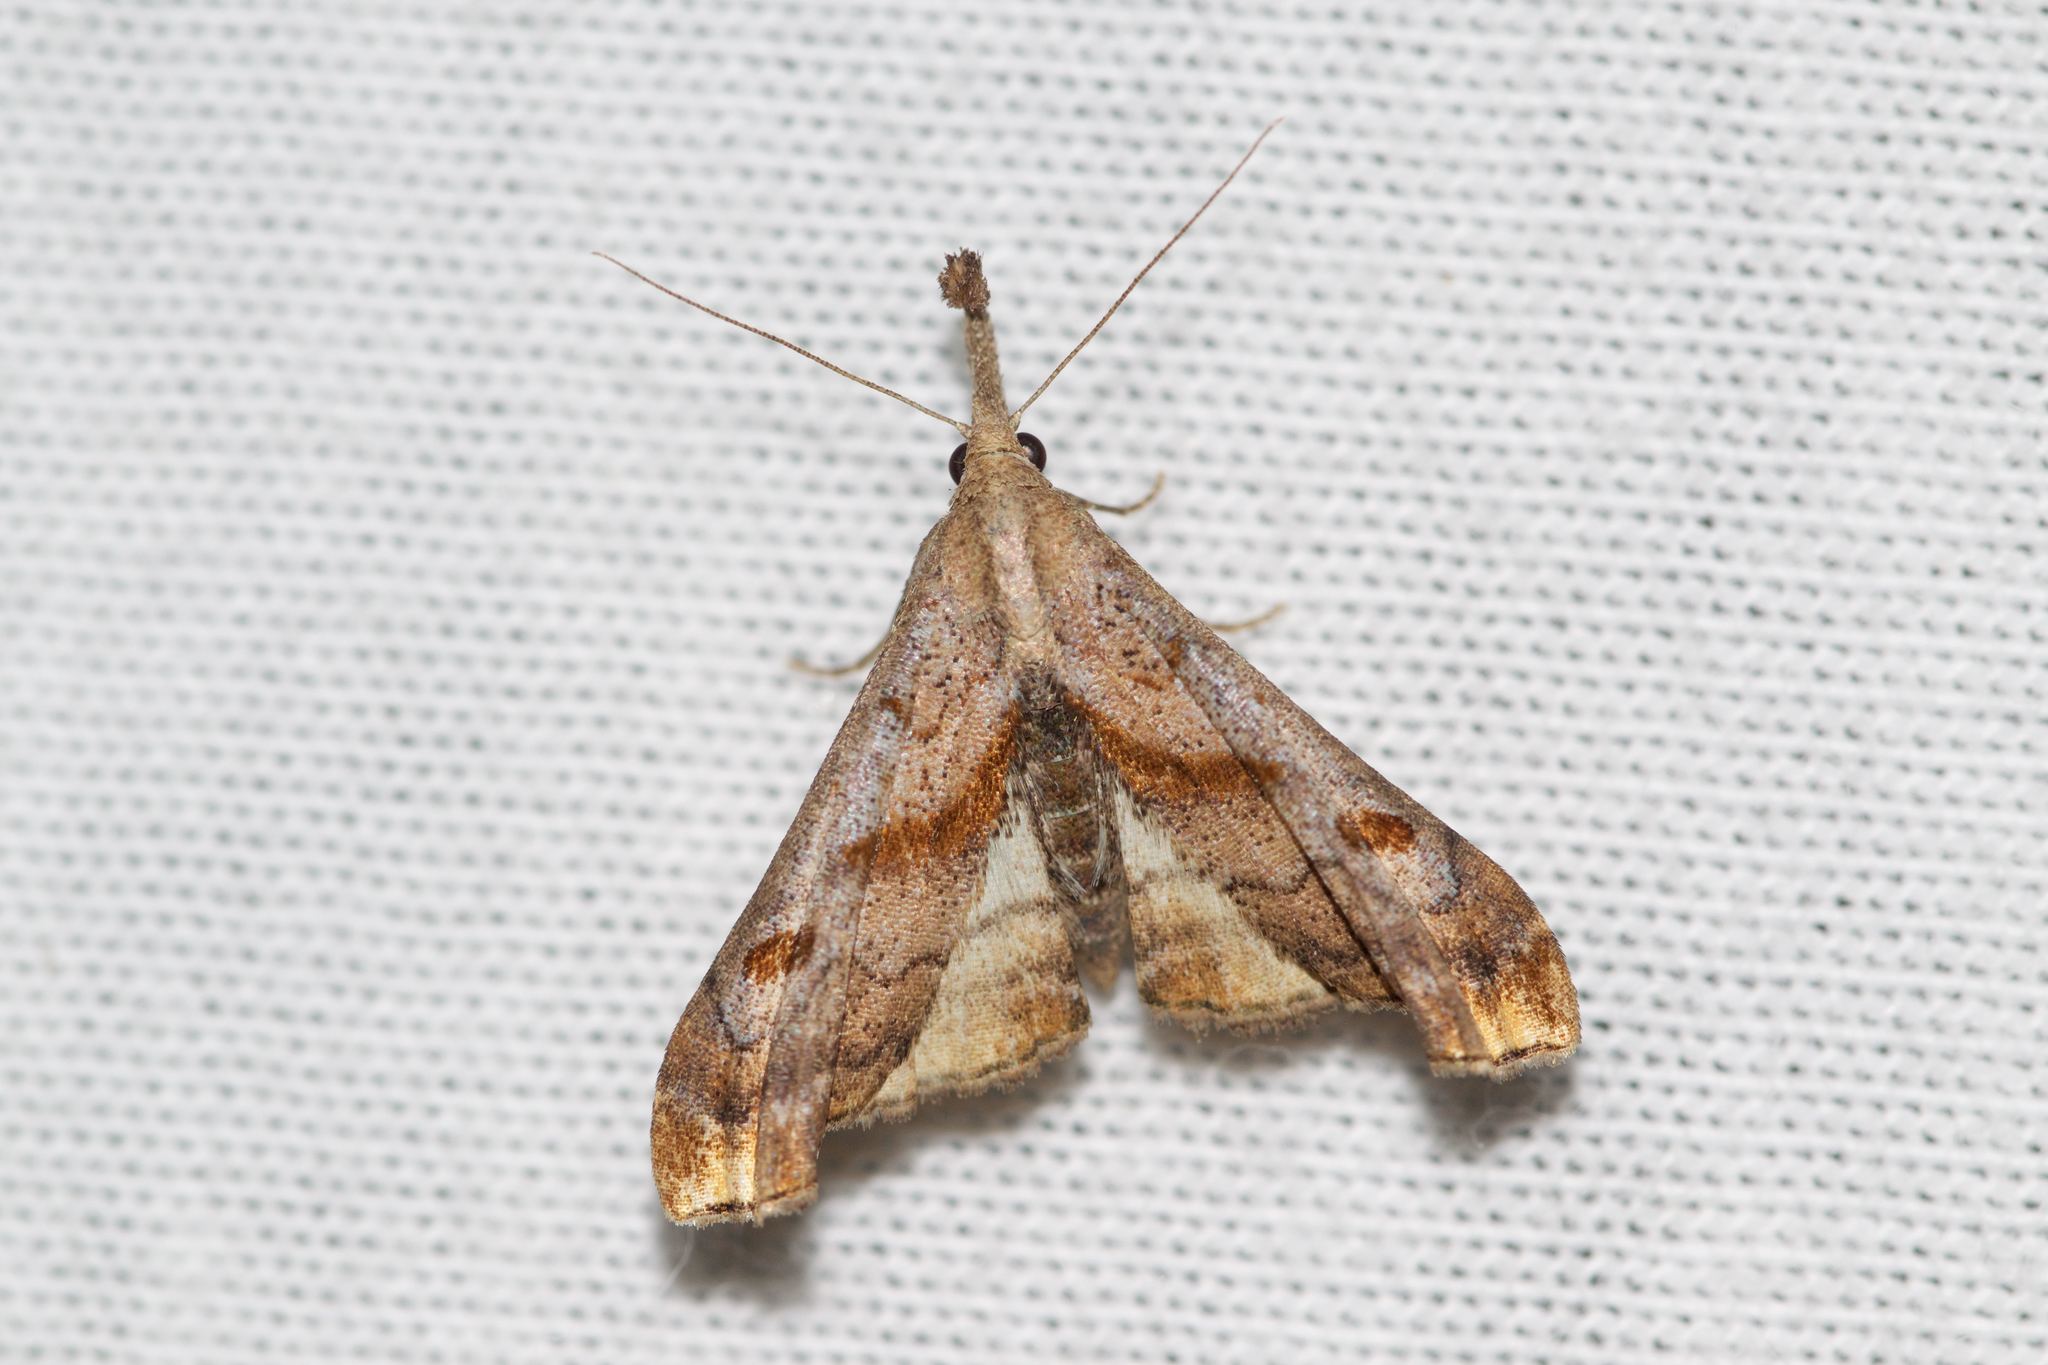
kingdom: Animalia
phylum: Arthropoda
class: Insecta
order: Lepidoptera
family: Erebidae
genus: Palthis
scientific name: Palthis angulalis
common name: Dark-spotted palthis moth
